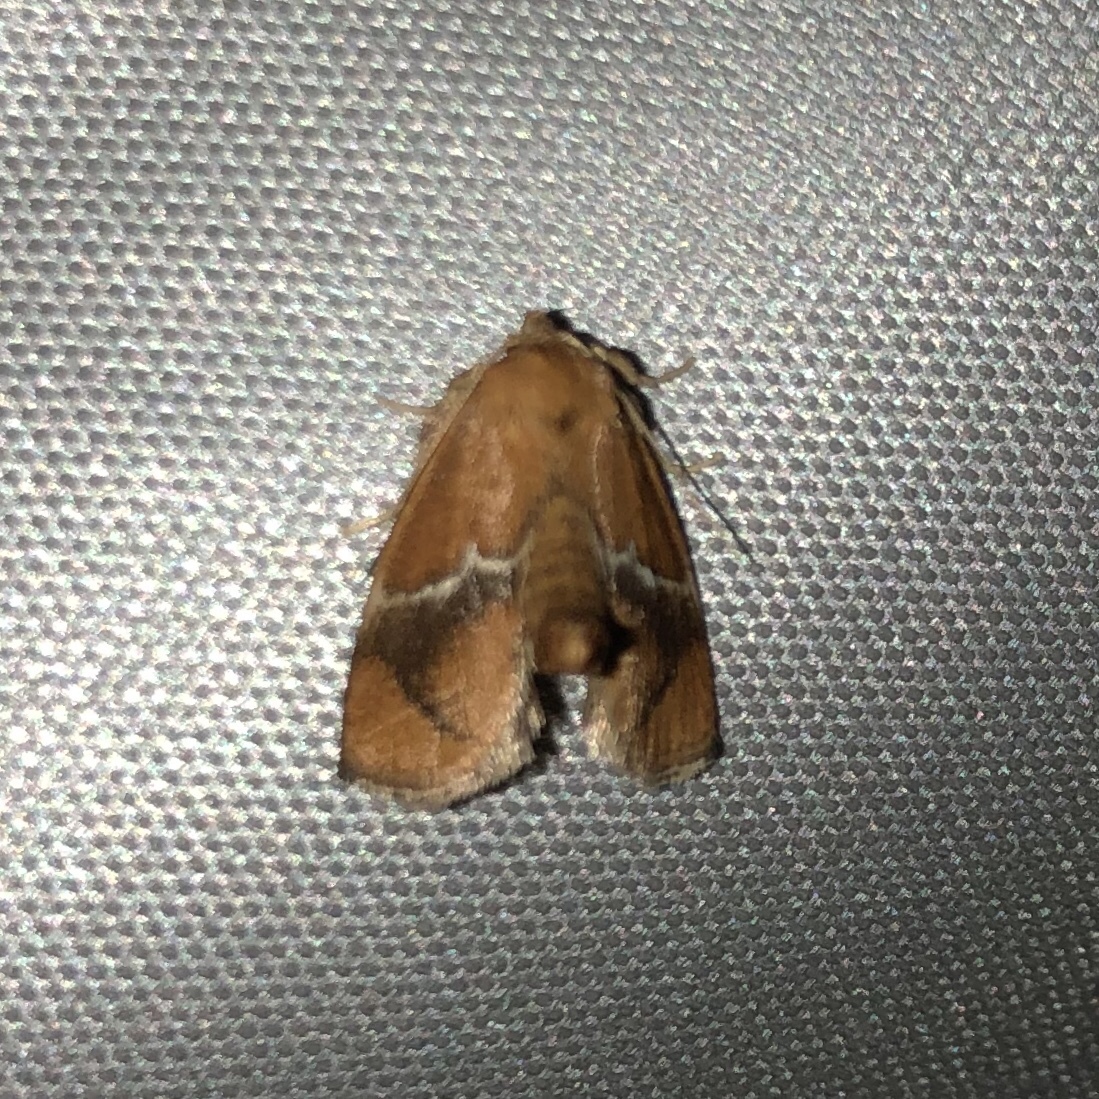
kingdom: Animalia
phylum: Arthropoda
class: Insecta
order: Lepidoptera
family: Limacodidae
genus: Lithacodes
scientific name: Lithacodes fasciola
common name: Yellow-shouldered slug moth
